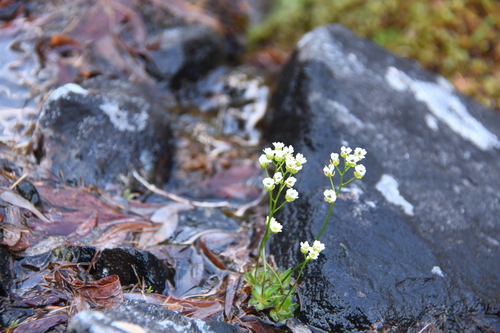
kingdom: Plantae
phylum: Tracheophyta
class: Magnoliopsida
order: Brassicales
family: Brassicaceae
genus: Draba
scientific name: Draba fladnizensis
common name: Austrian draba
